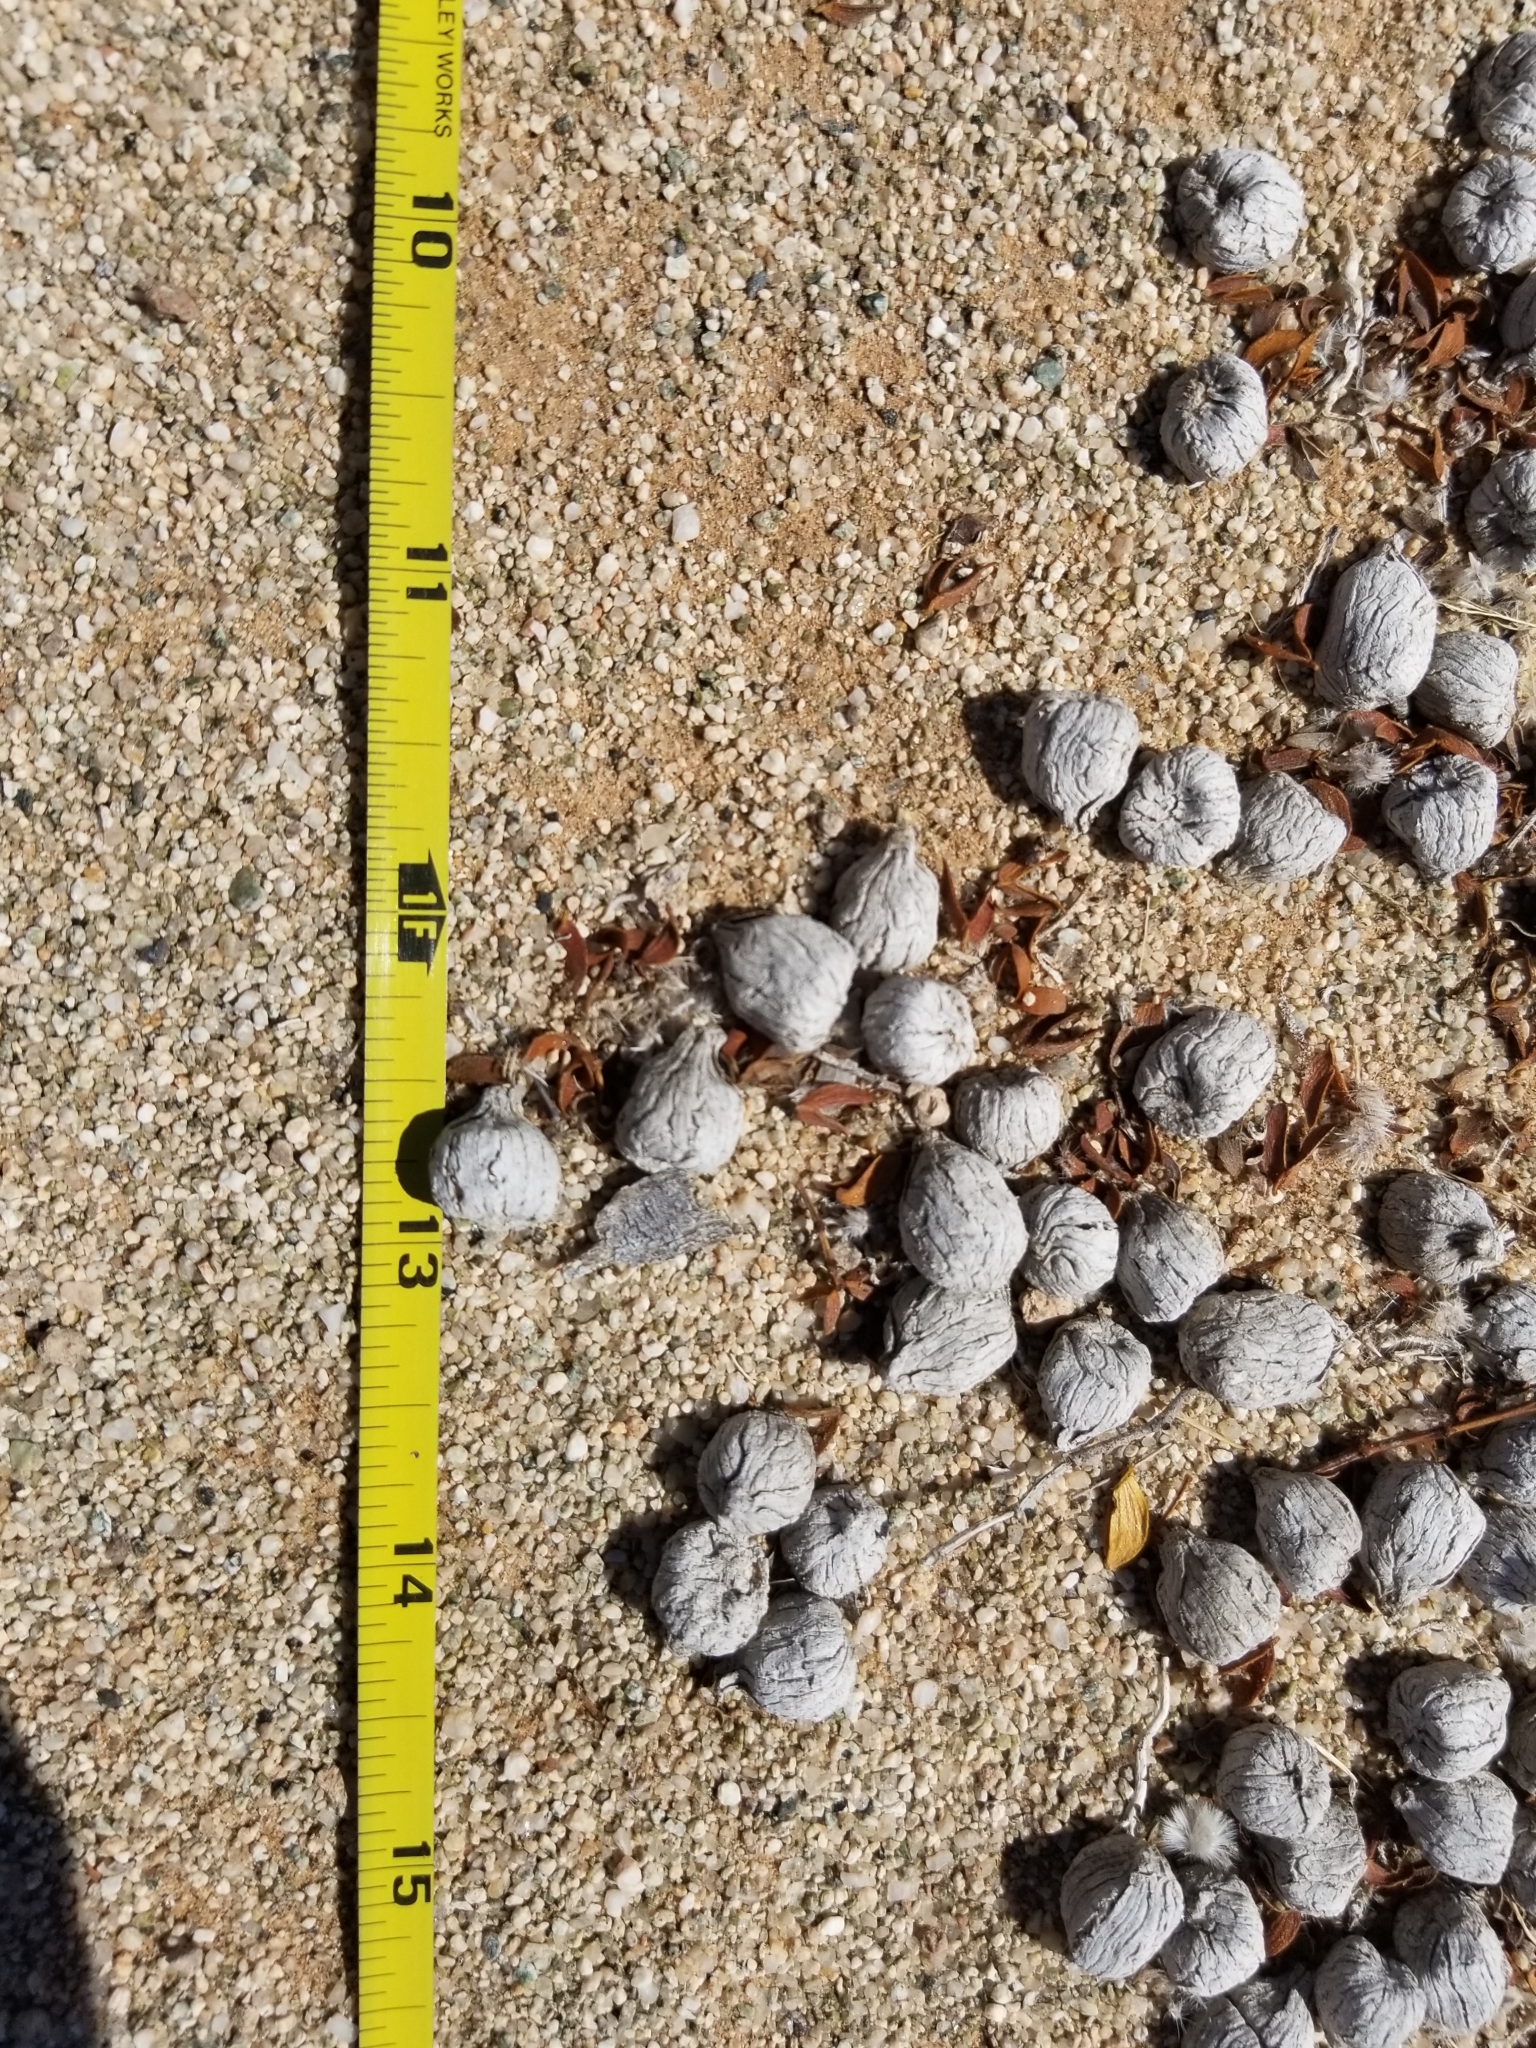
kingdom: Animalia
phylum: Chordata
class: Mammalia
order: Artiodactyla
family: Antilocapridae
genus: Antilocapra
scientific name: Antilocapra americana
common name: Pronghorn
